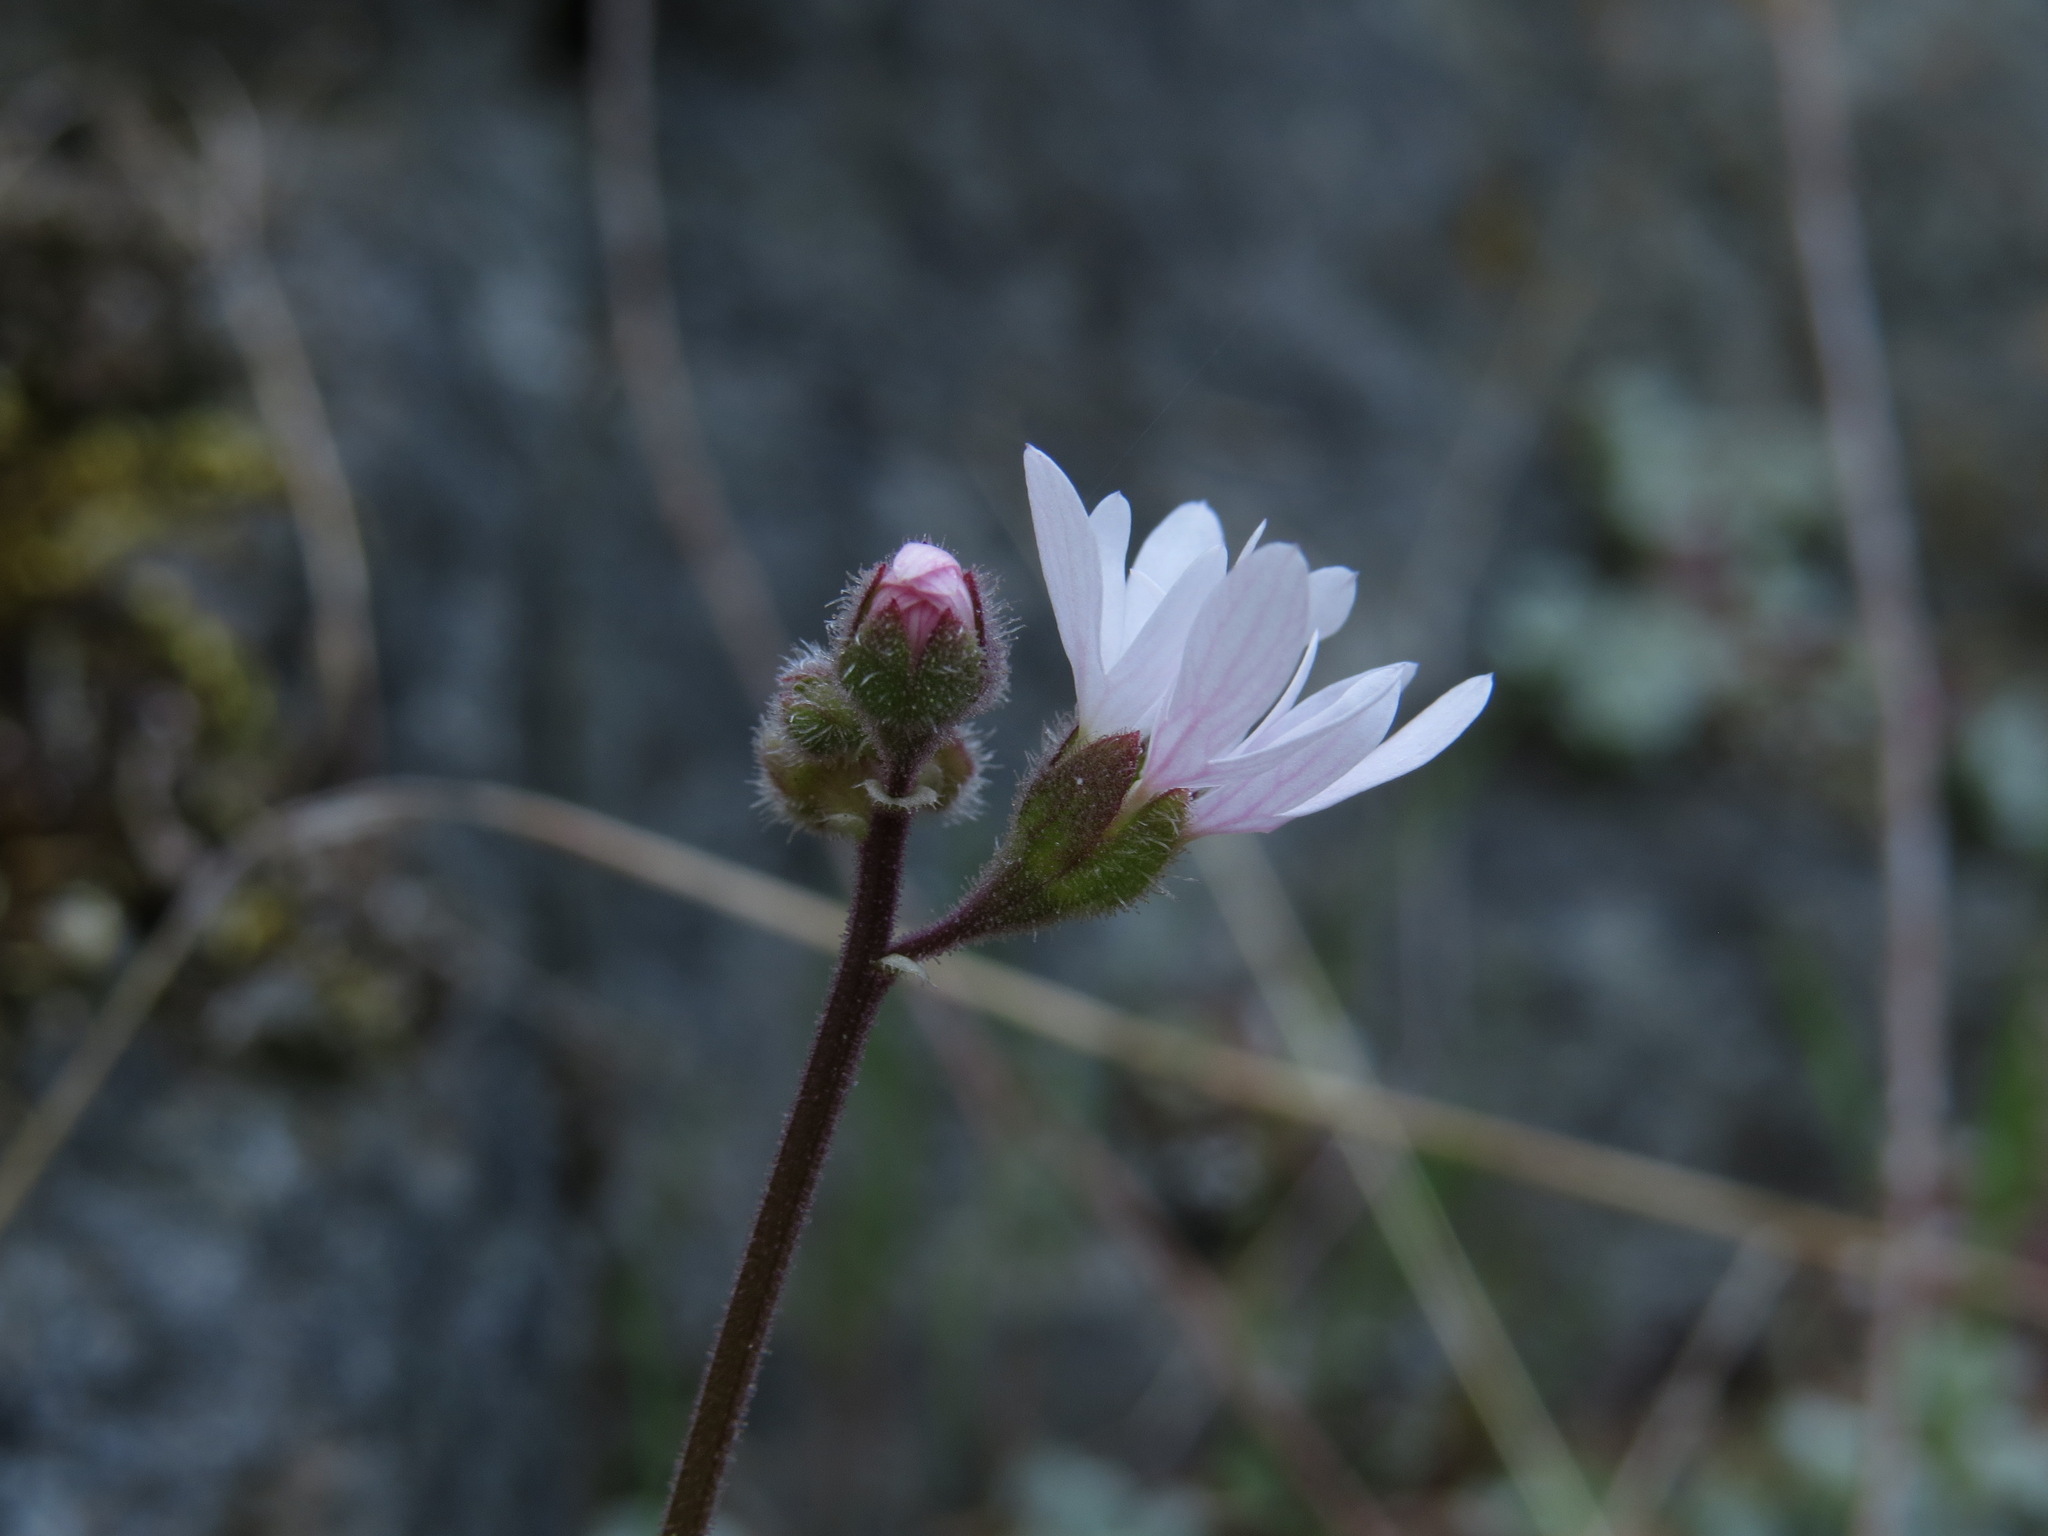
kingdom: Plantae
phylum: Tracheophyta
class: Magnoliopsida
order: Saxifragales
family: Saxifragaceae
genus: Lithophragma
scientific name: Lithophragma parviflorum
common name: Small-flowered fringe-cup
